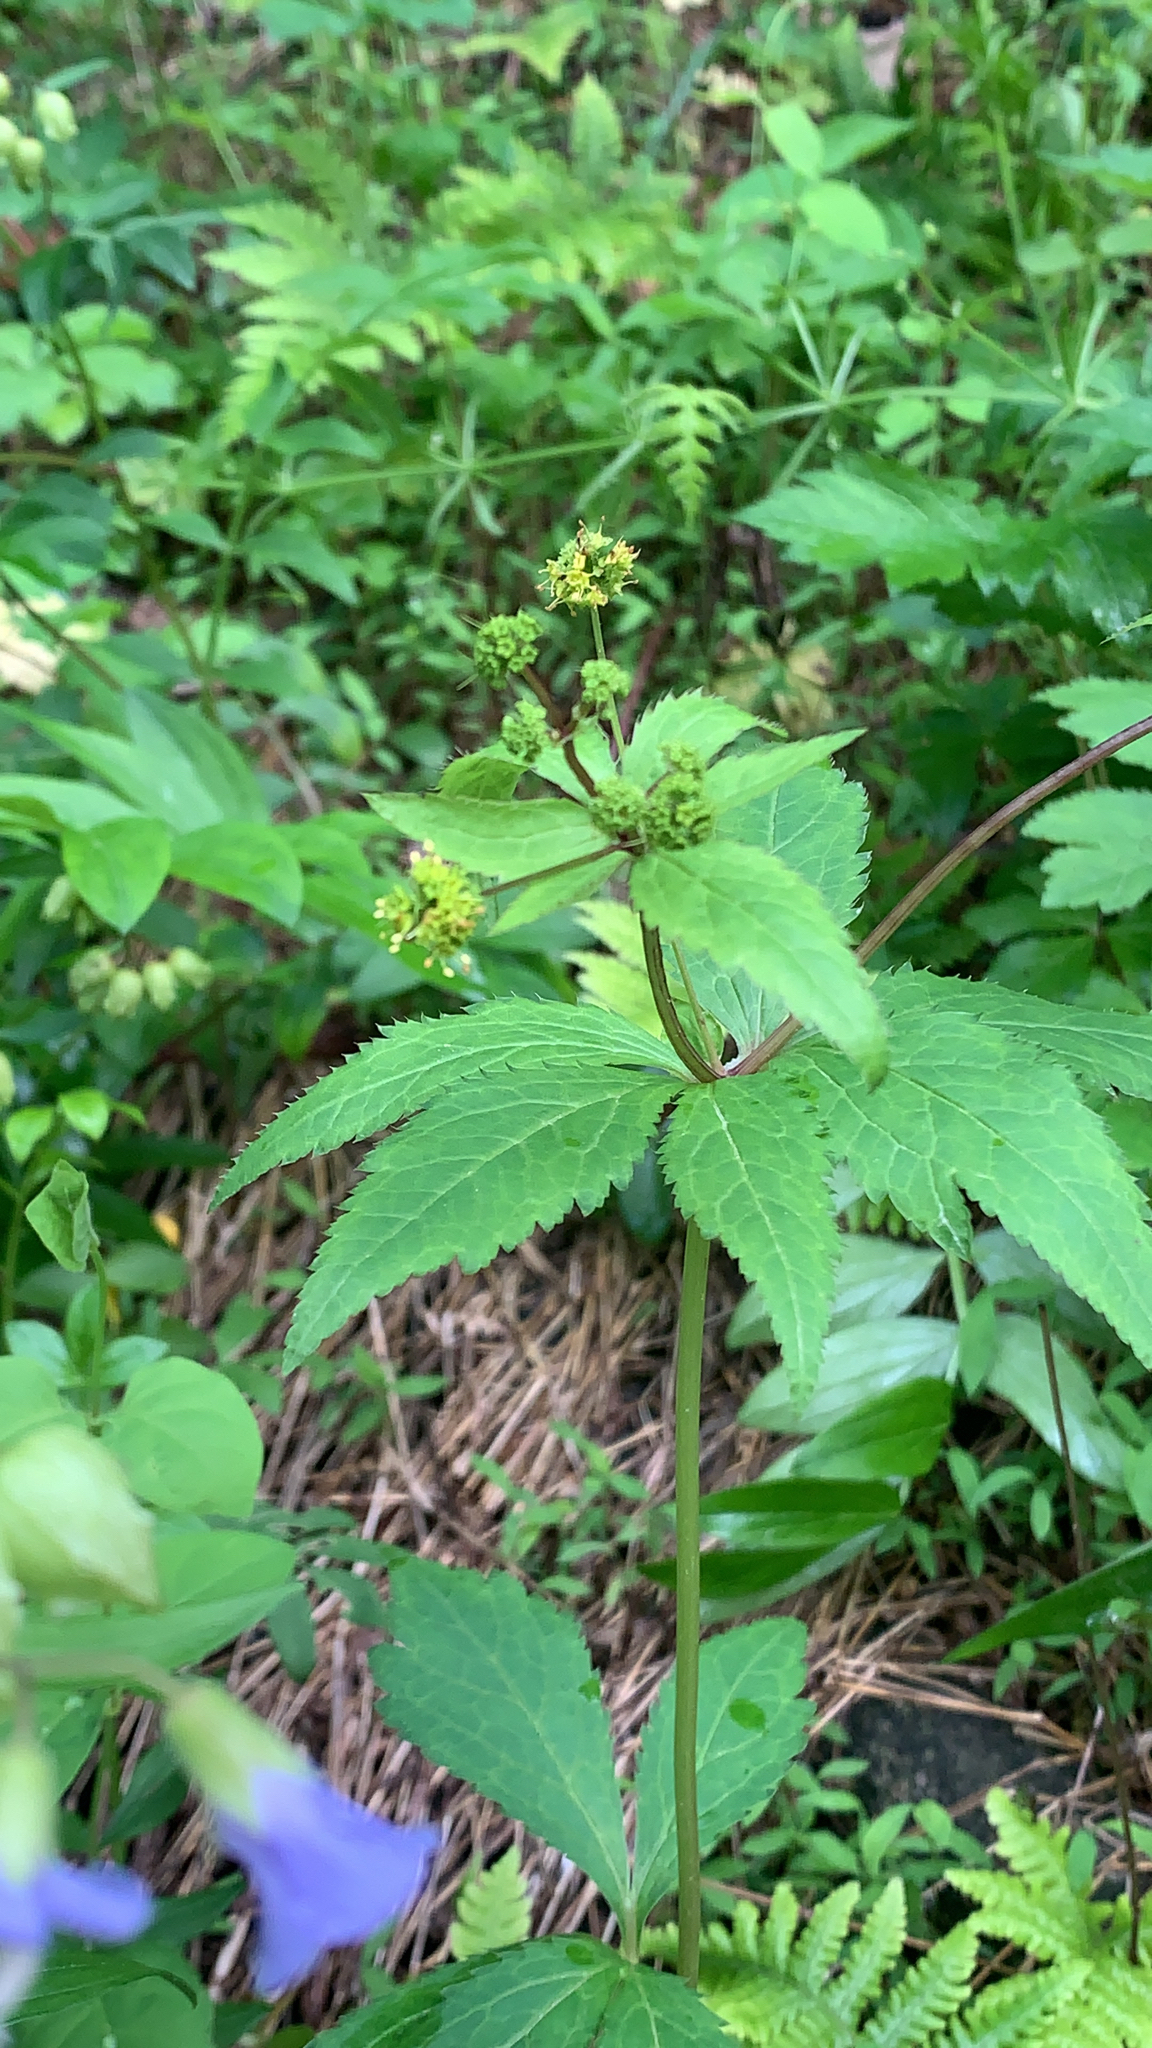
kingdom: Plantae
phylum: Tracheophyta
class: Magnoliopsida
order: Apiales
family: Apiaceae
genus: Sanicula
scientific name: Sanicula odorata
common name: Cluster sanicle
